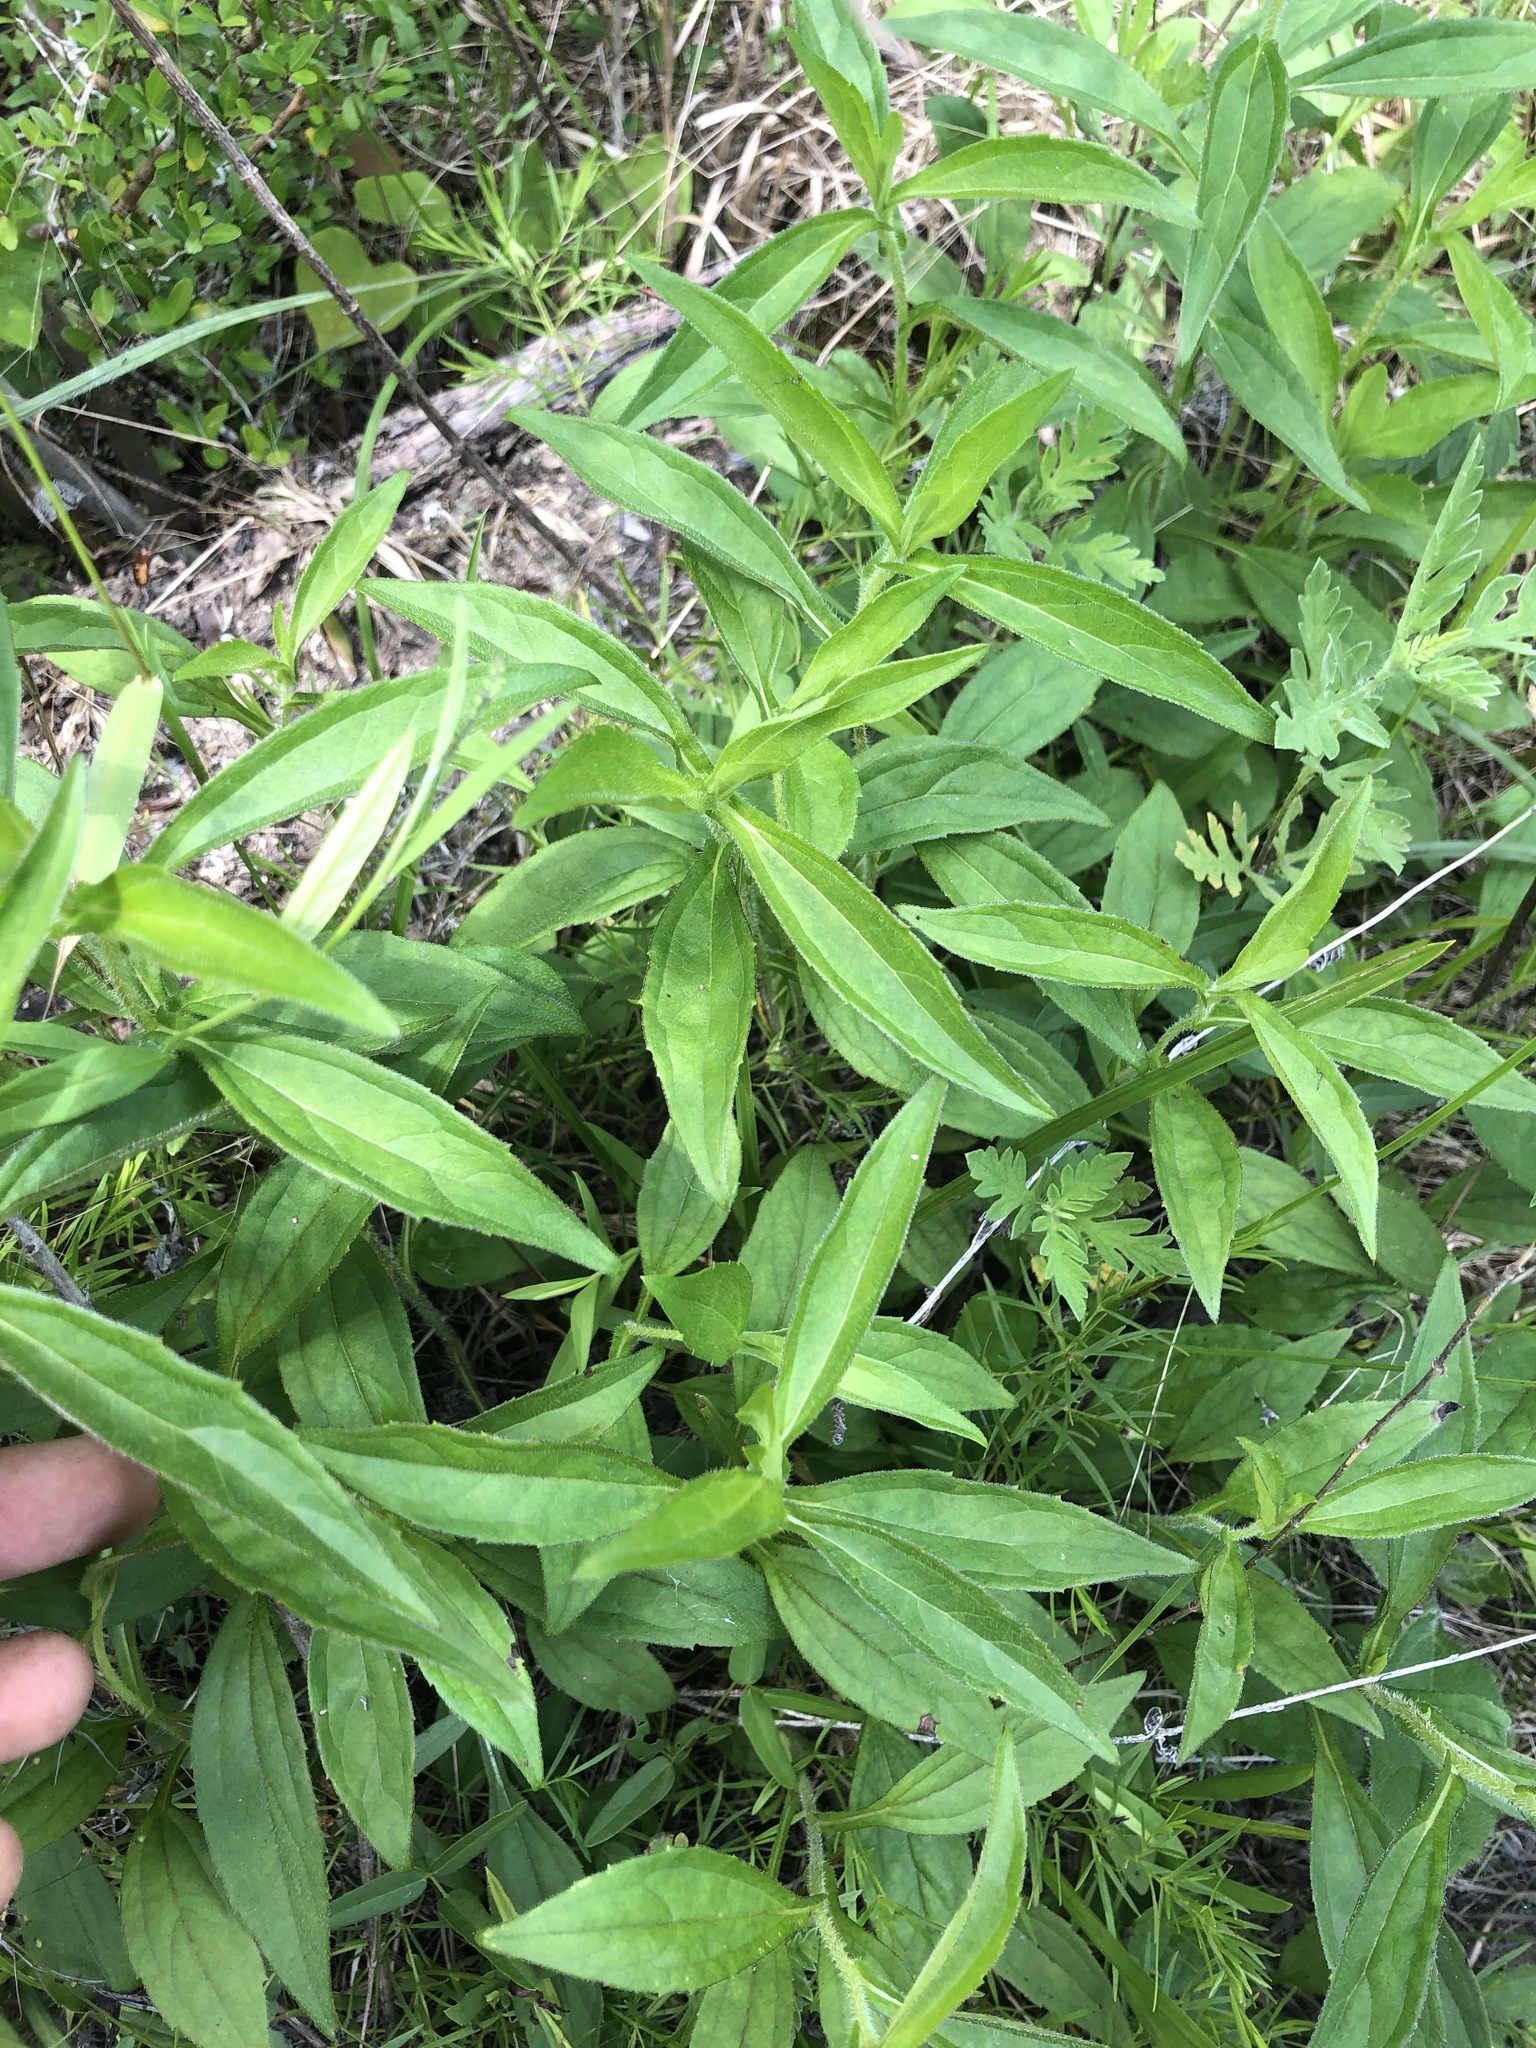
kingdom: Plantae
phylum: Tracheophyta
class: Magnoliopsida
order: Asterales
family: Asteraceae
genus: Rudbeckia
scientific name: Rudbeckia terranigrae
